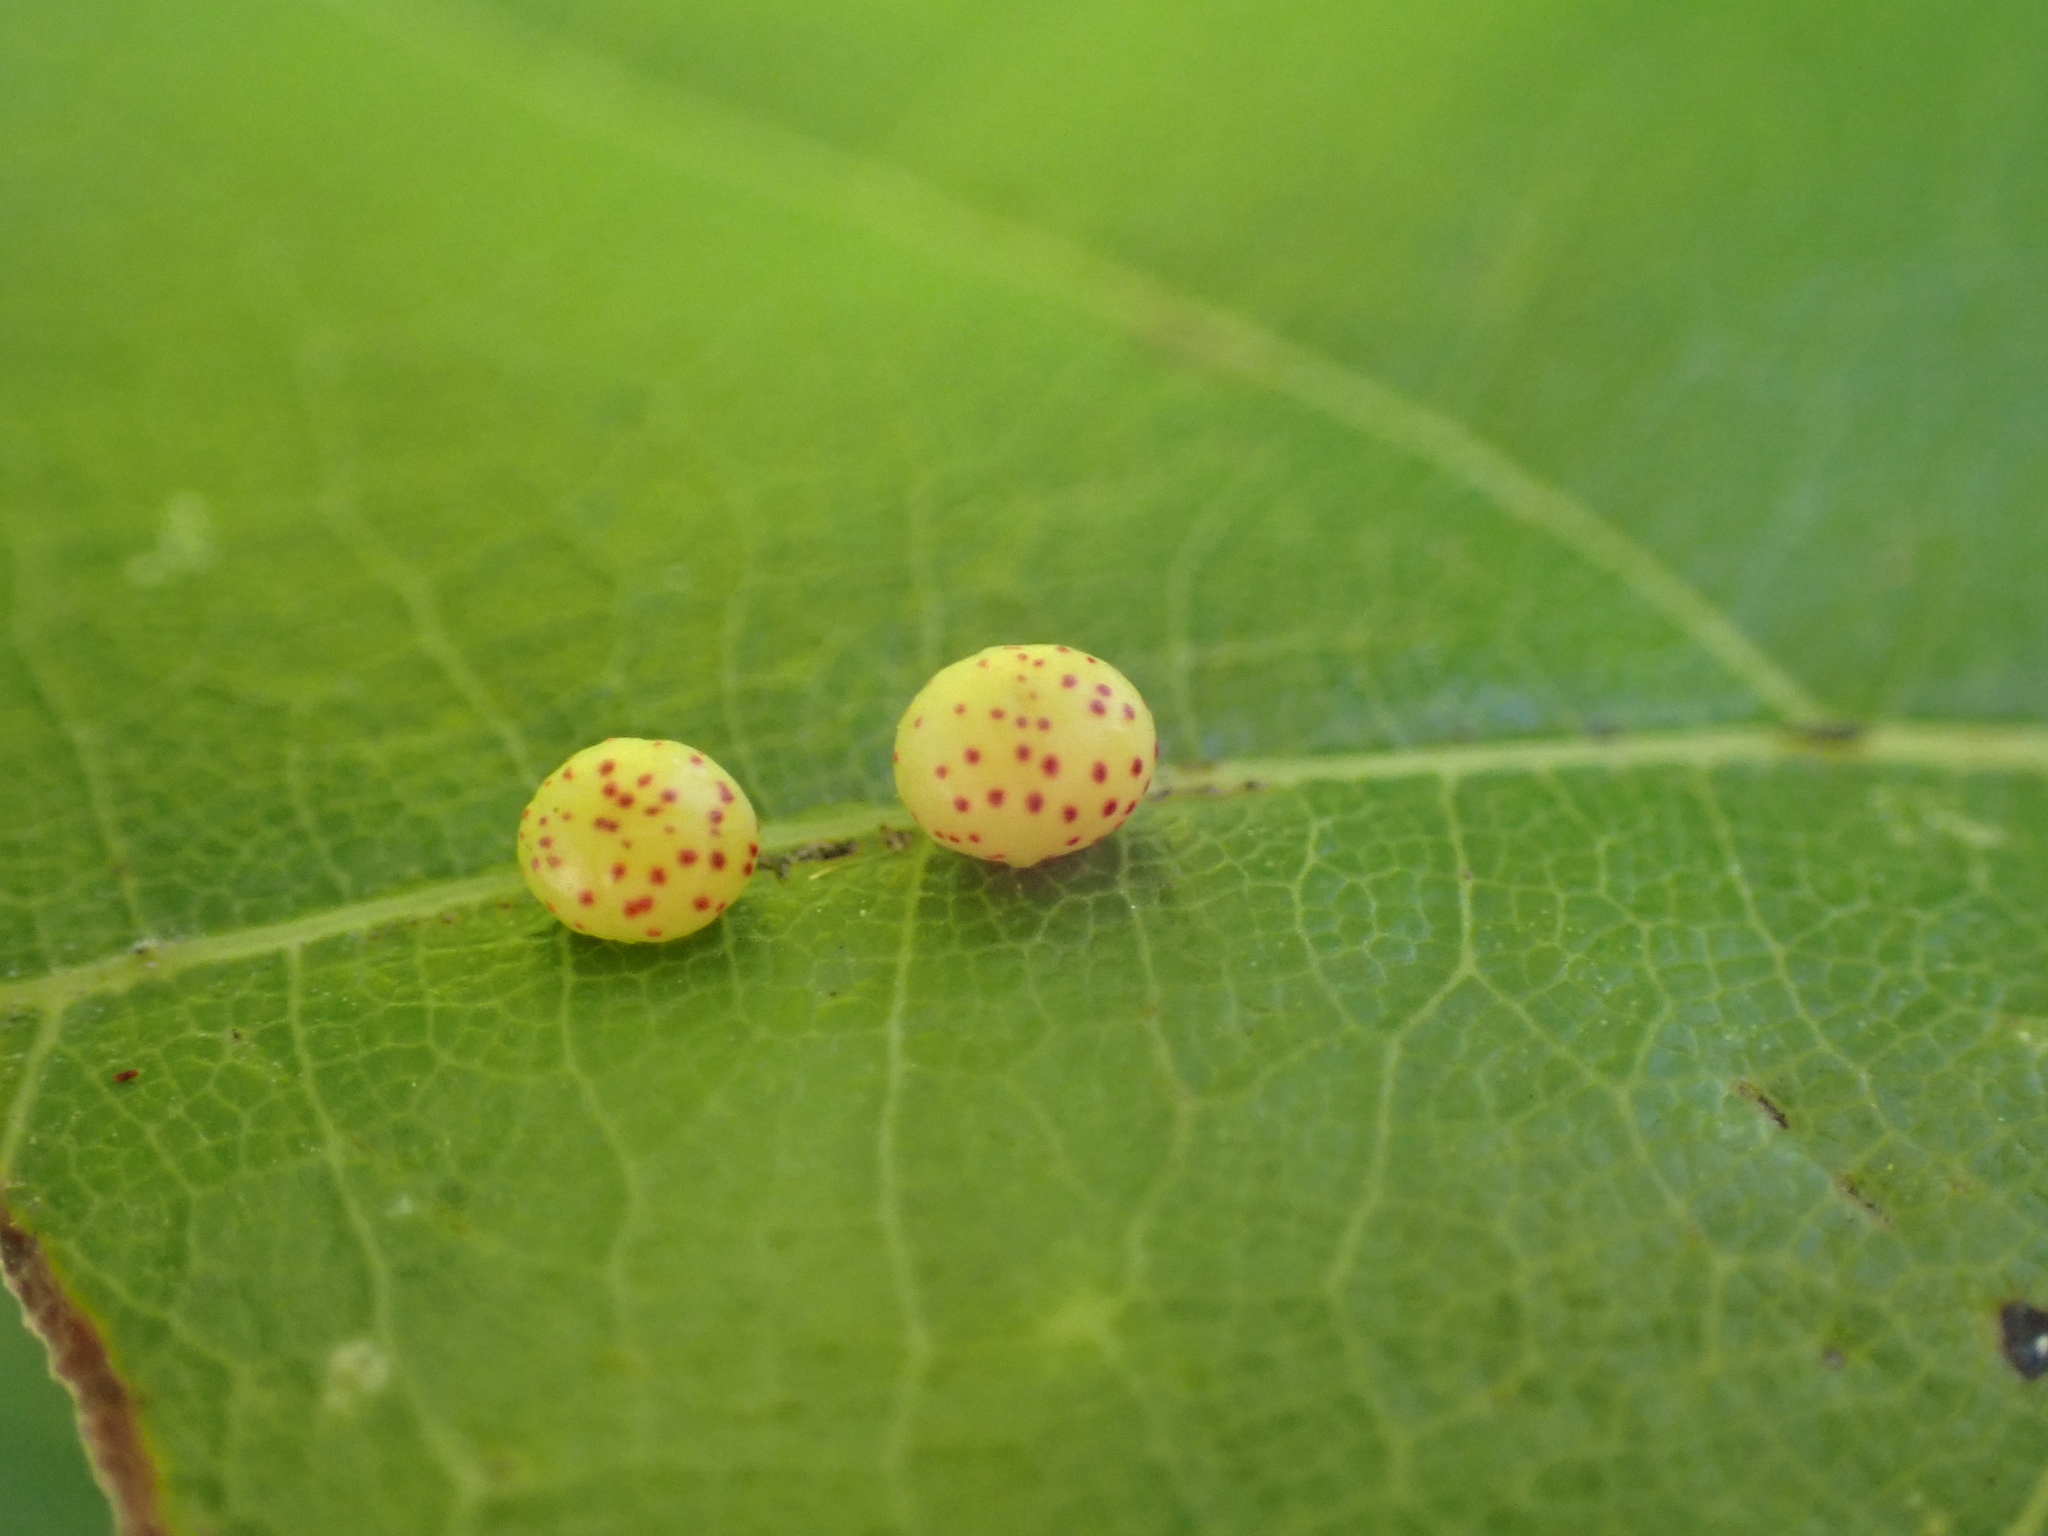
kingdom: Animalia
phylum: Arthropoda
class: Insecta
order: Hymenoptera
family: Cynipidae
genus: Zopheroteras
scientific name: Zopheroteras
